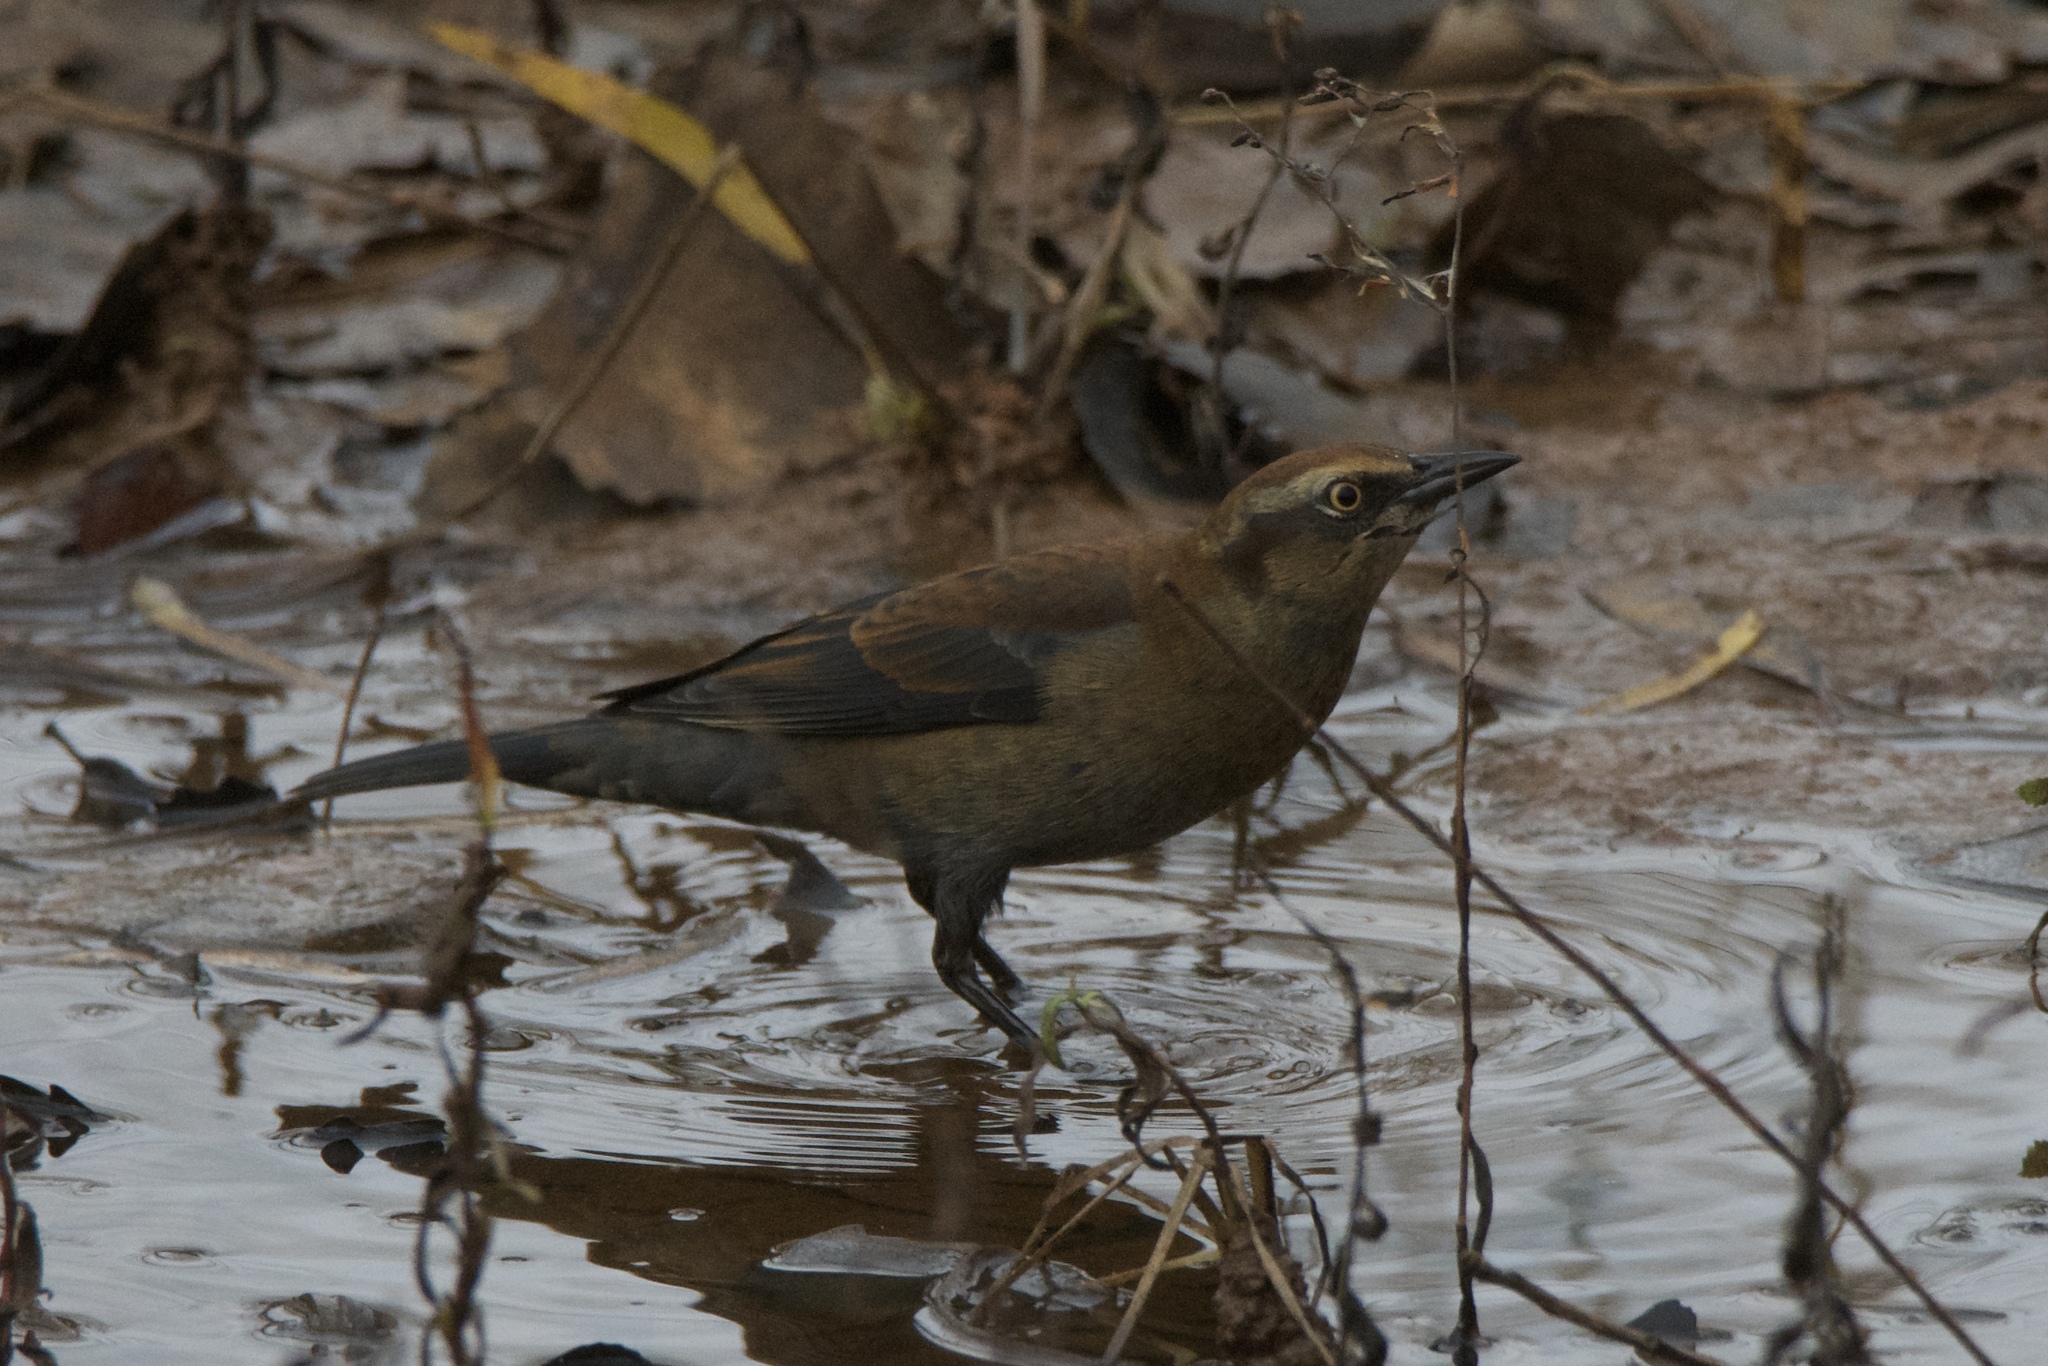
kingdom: Animalia
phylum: Chordata
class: Aves
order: Passeriformes
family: Icteridae
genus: Euphagus
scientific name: Euphagus carolinus
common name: Rusty blackbird
